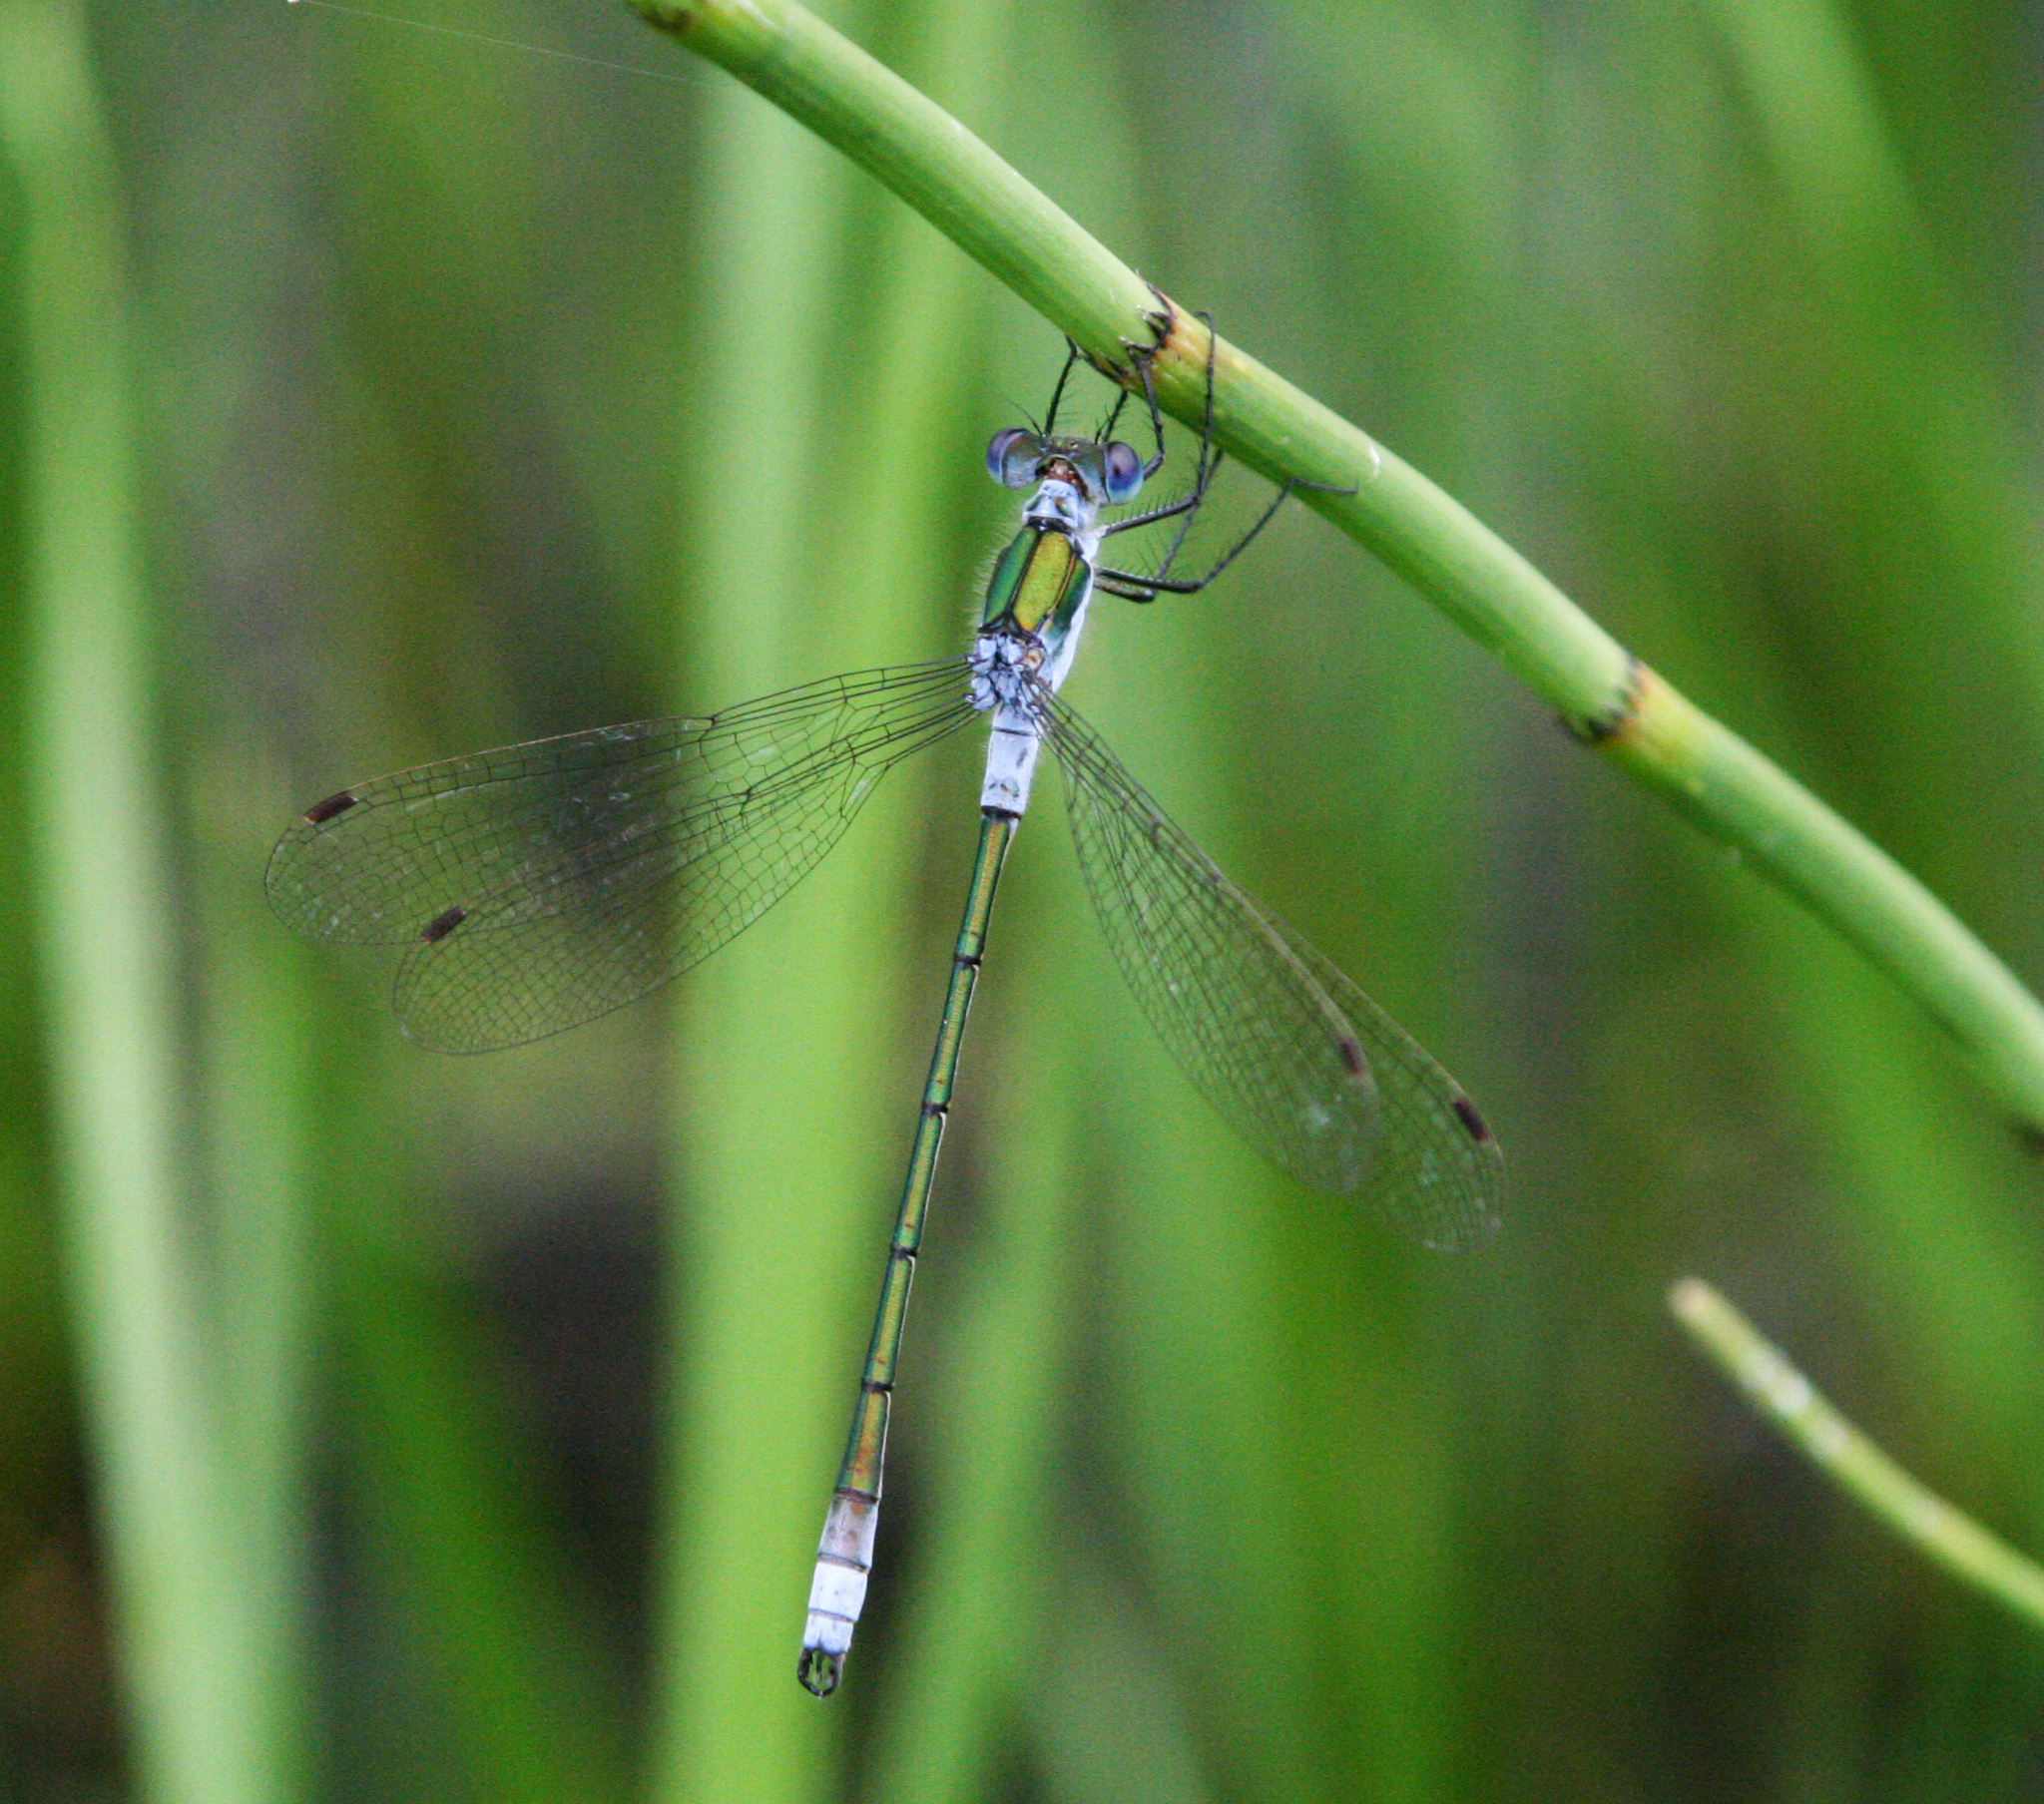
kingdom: Animalia
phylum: Arthropoda
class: Insecta
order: Odonata
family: Lestidae
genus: Lestes
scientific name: Lestes sponsa
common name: Common spreadwing
